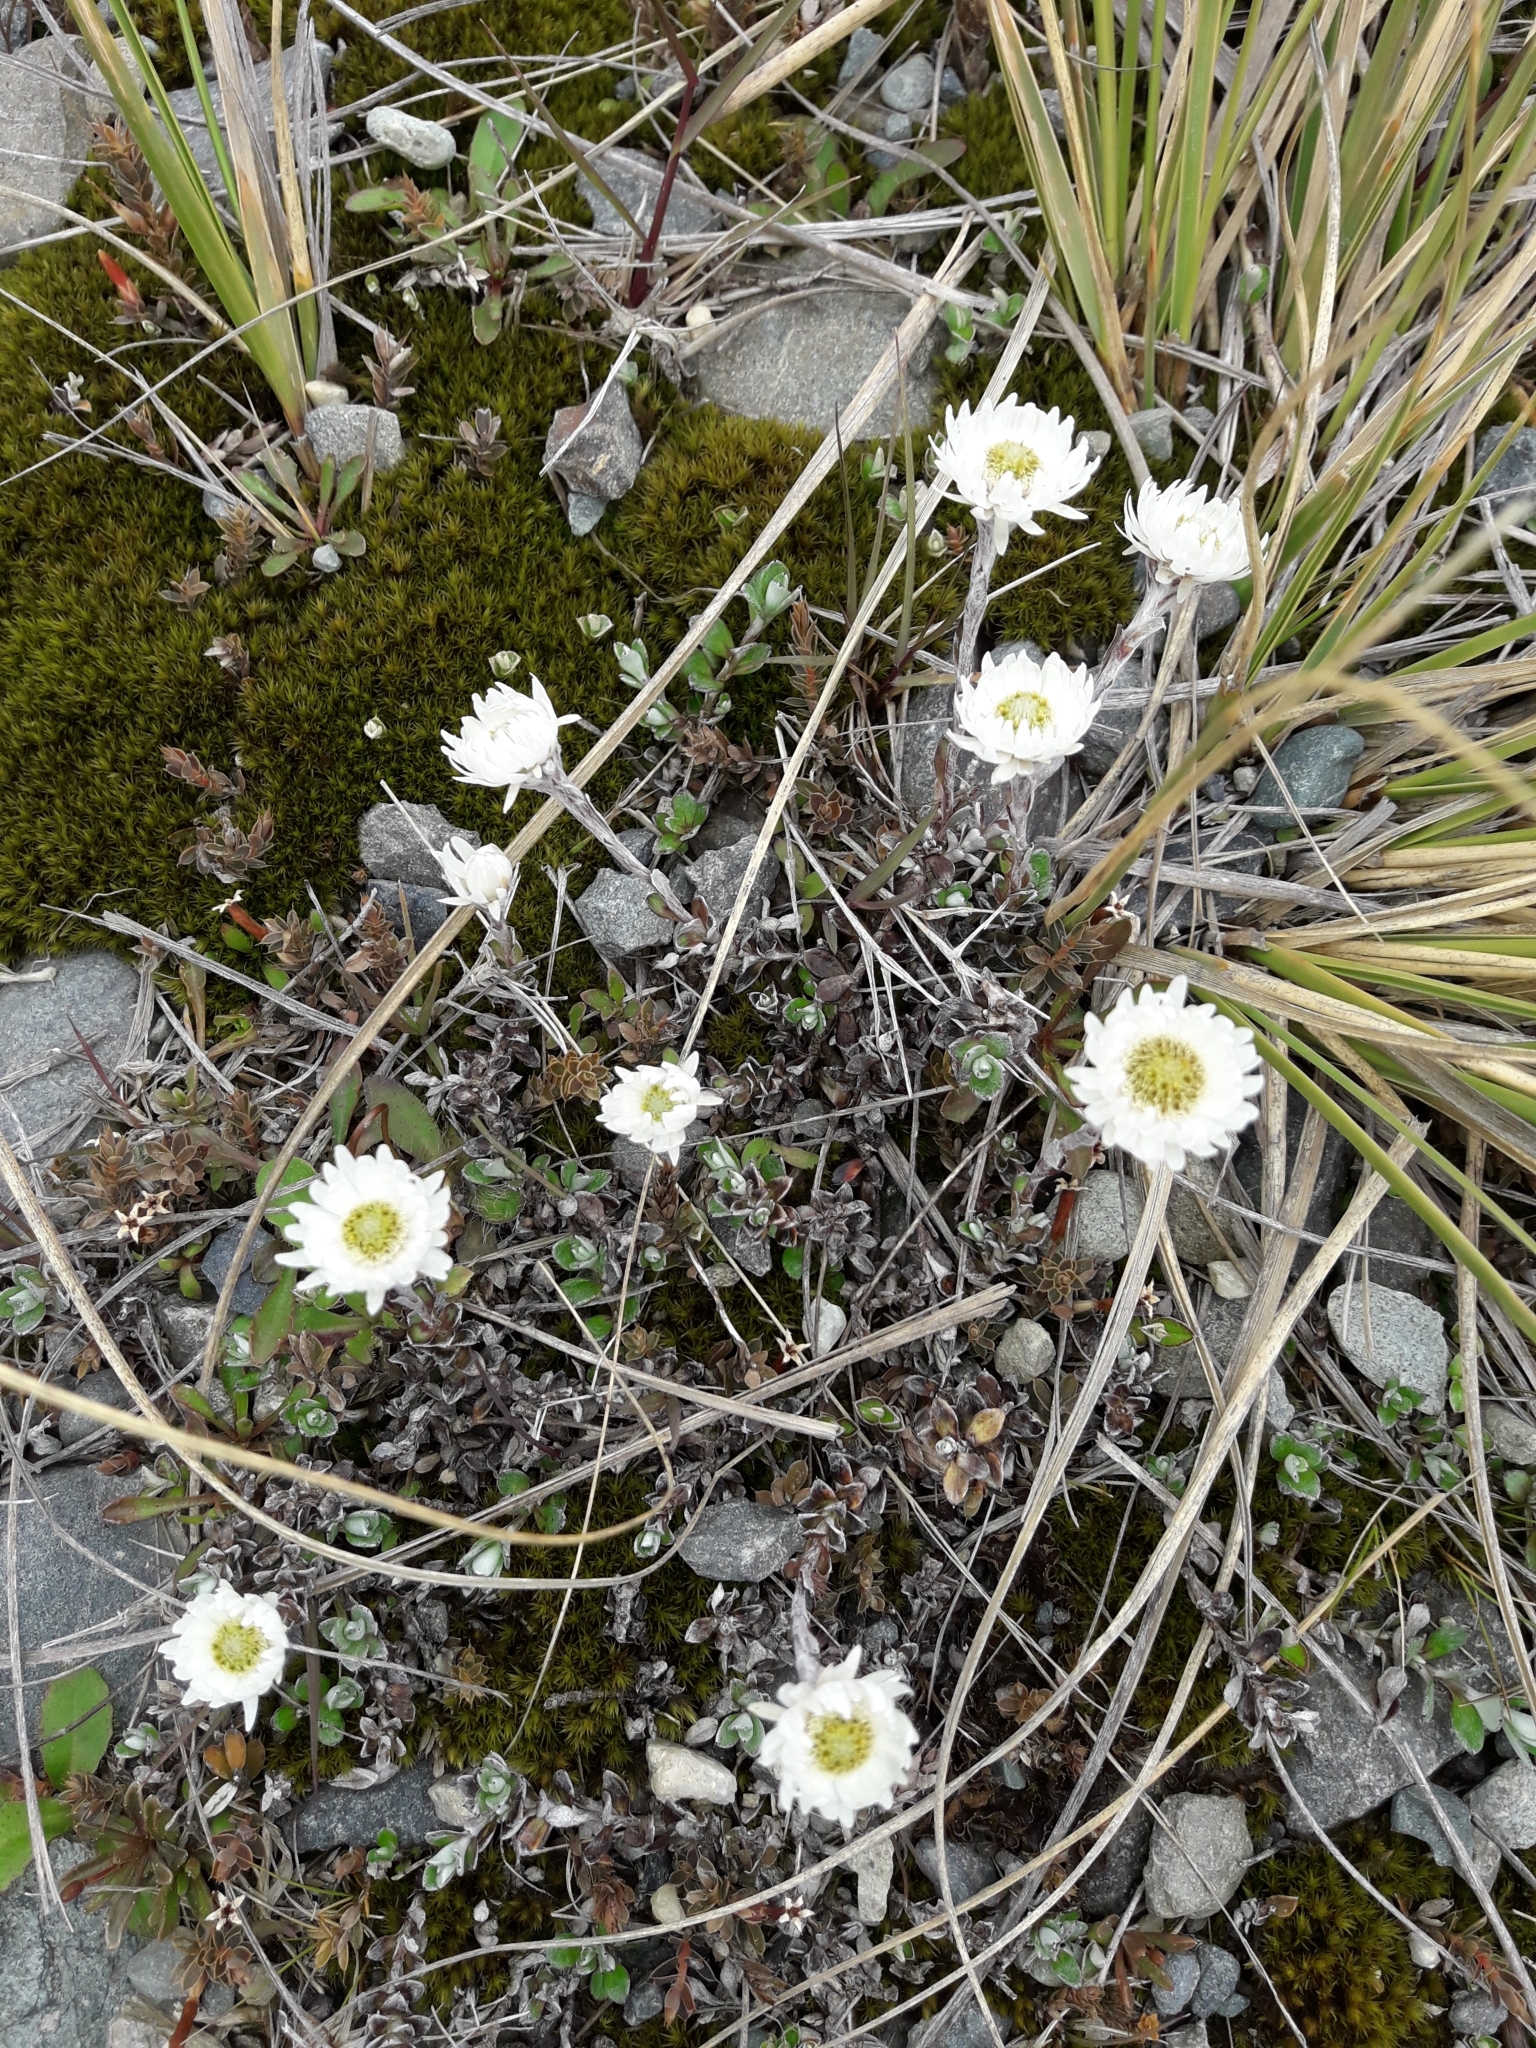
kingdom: Plantae
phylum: Tracheophyta
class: Magnoliopsida
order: Asterales
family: Asteraceae
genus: Anaphalioides
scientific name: Anaphalioides bellidioides
